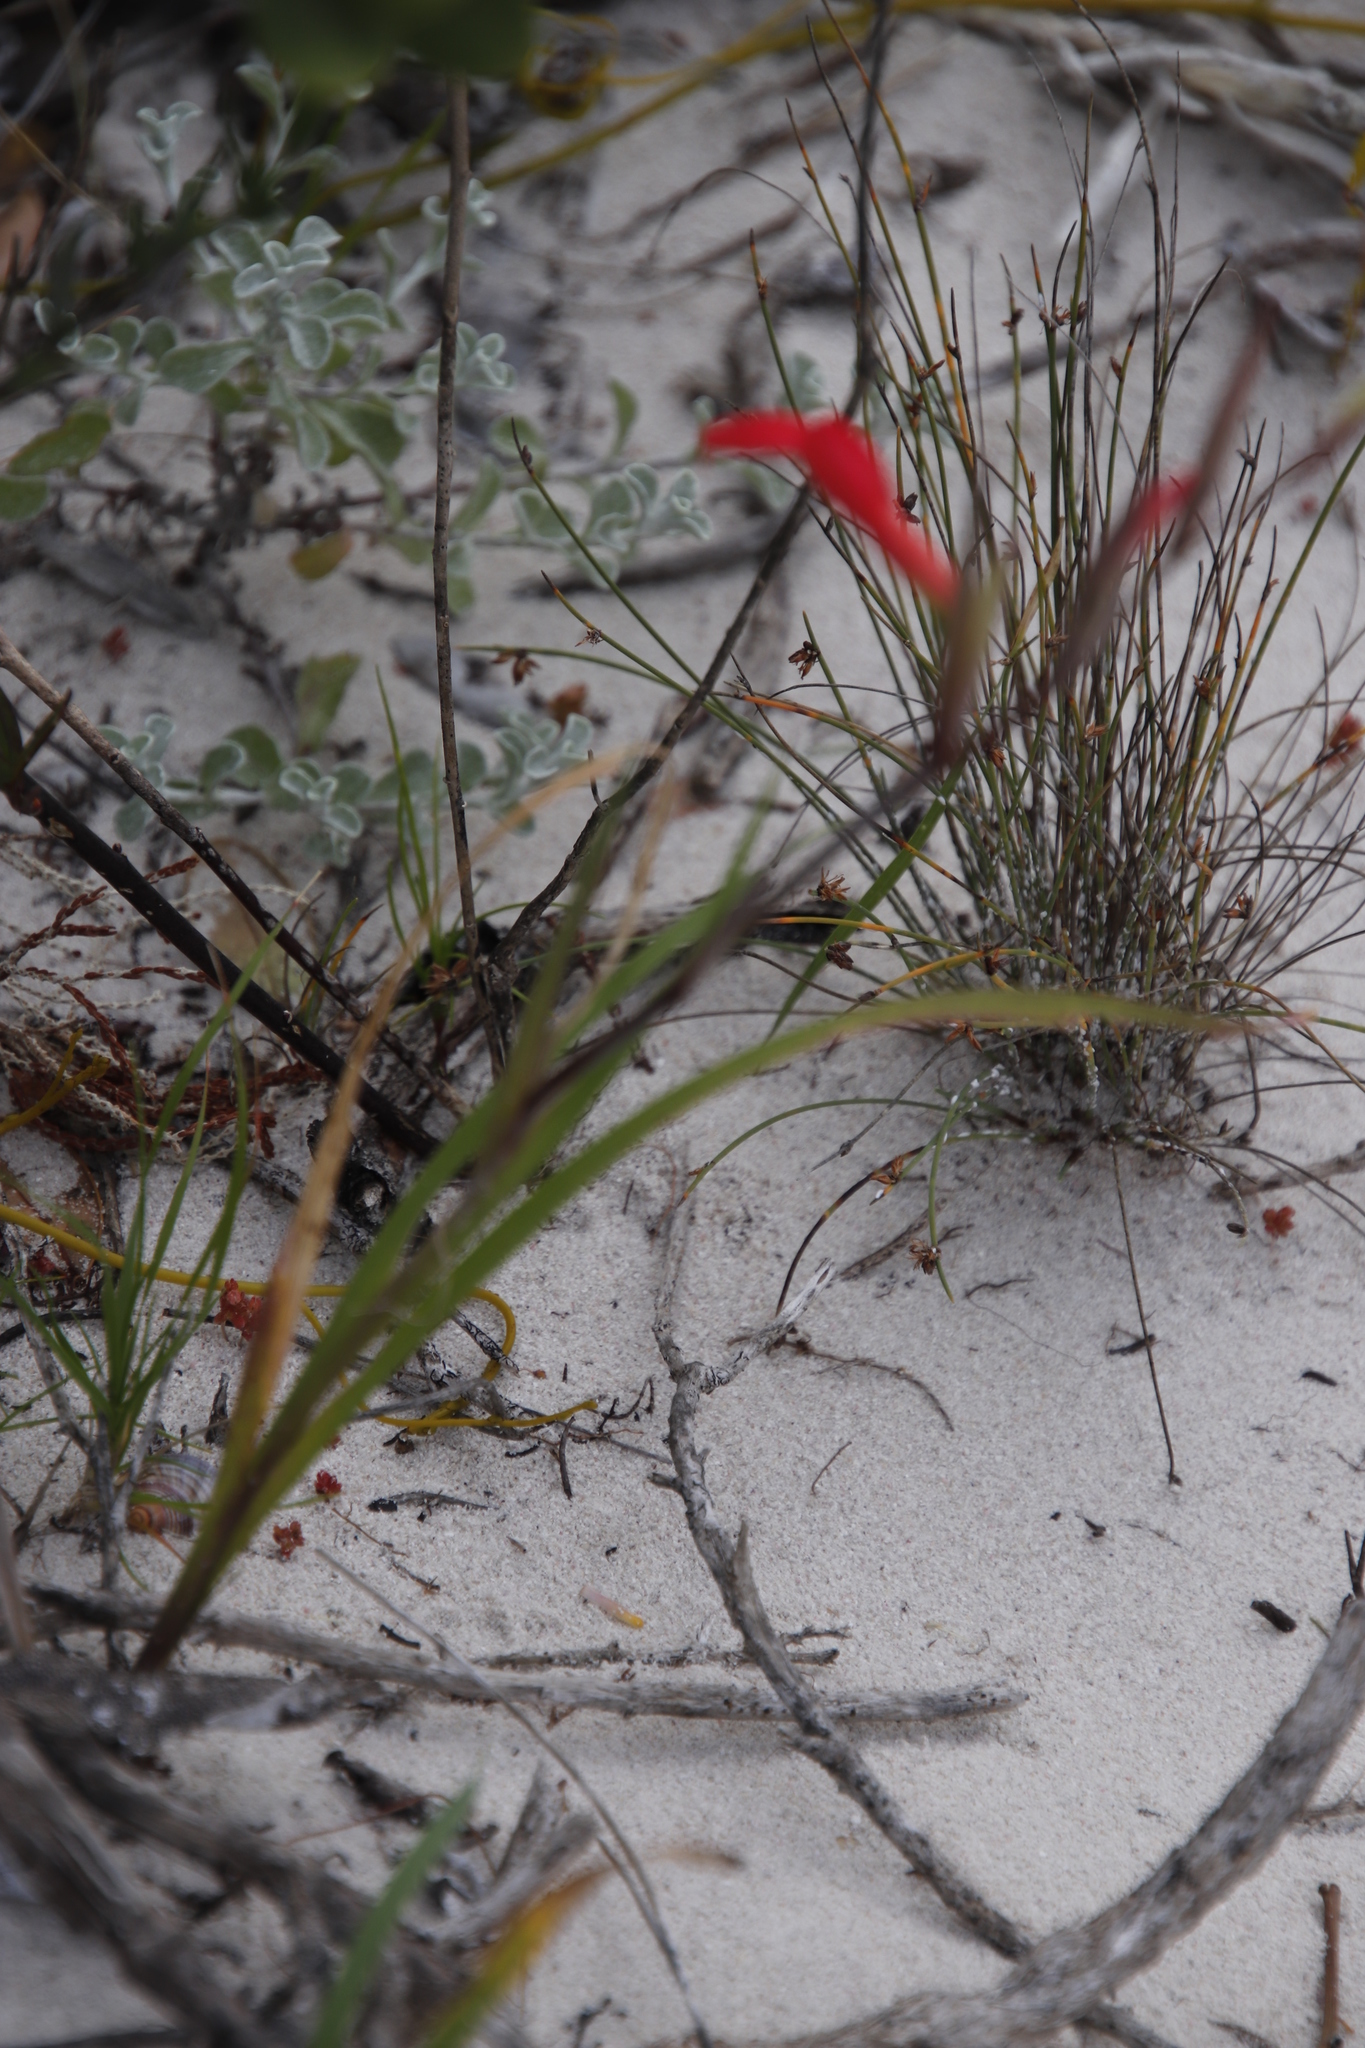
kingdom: Plantae
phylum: Tracheophyta
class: Liliopsida
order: Asparagales
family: Iridaceae
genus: Gladiolus
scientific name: Gladiolus cunonius
